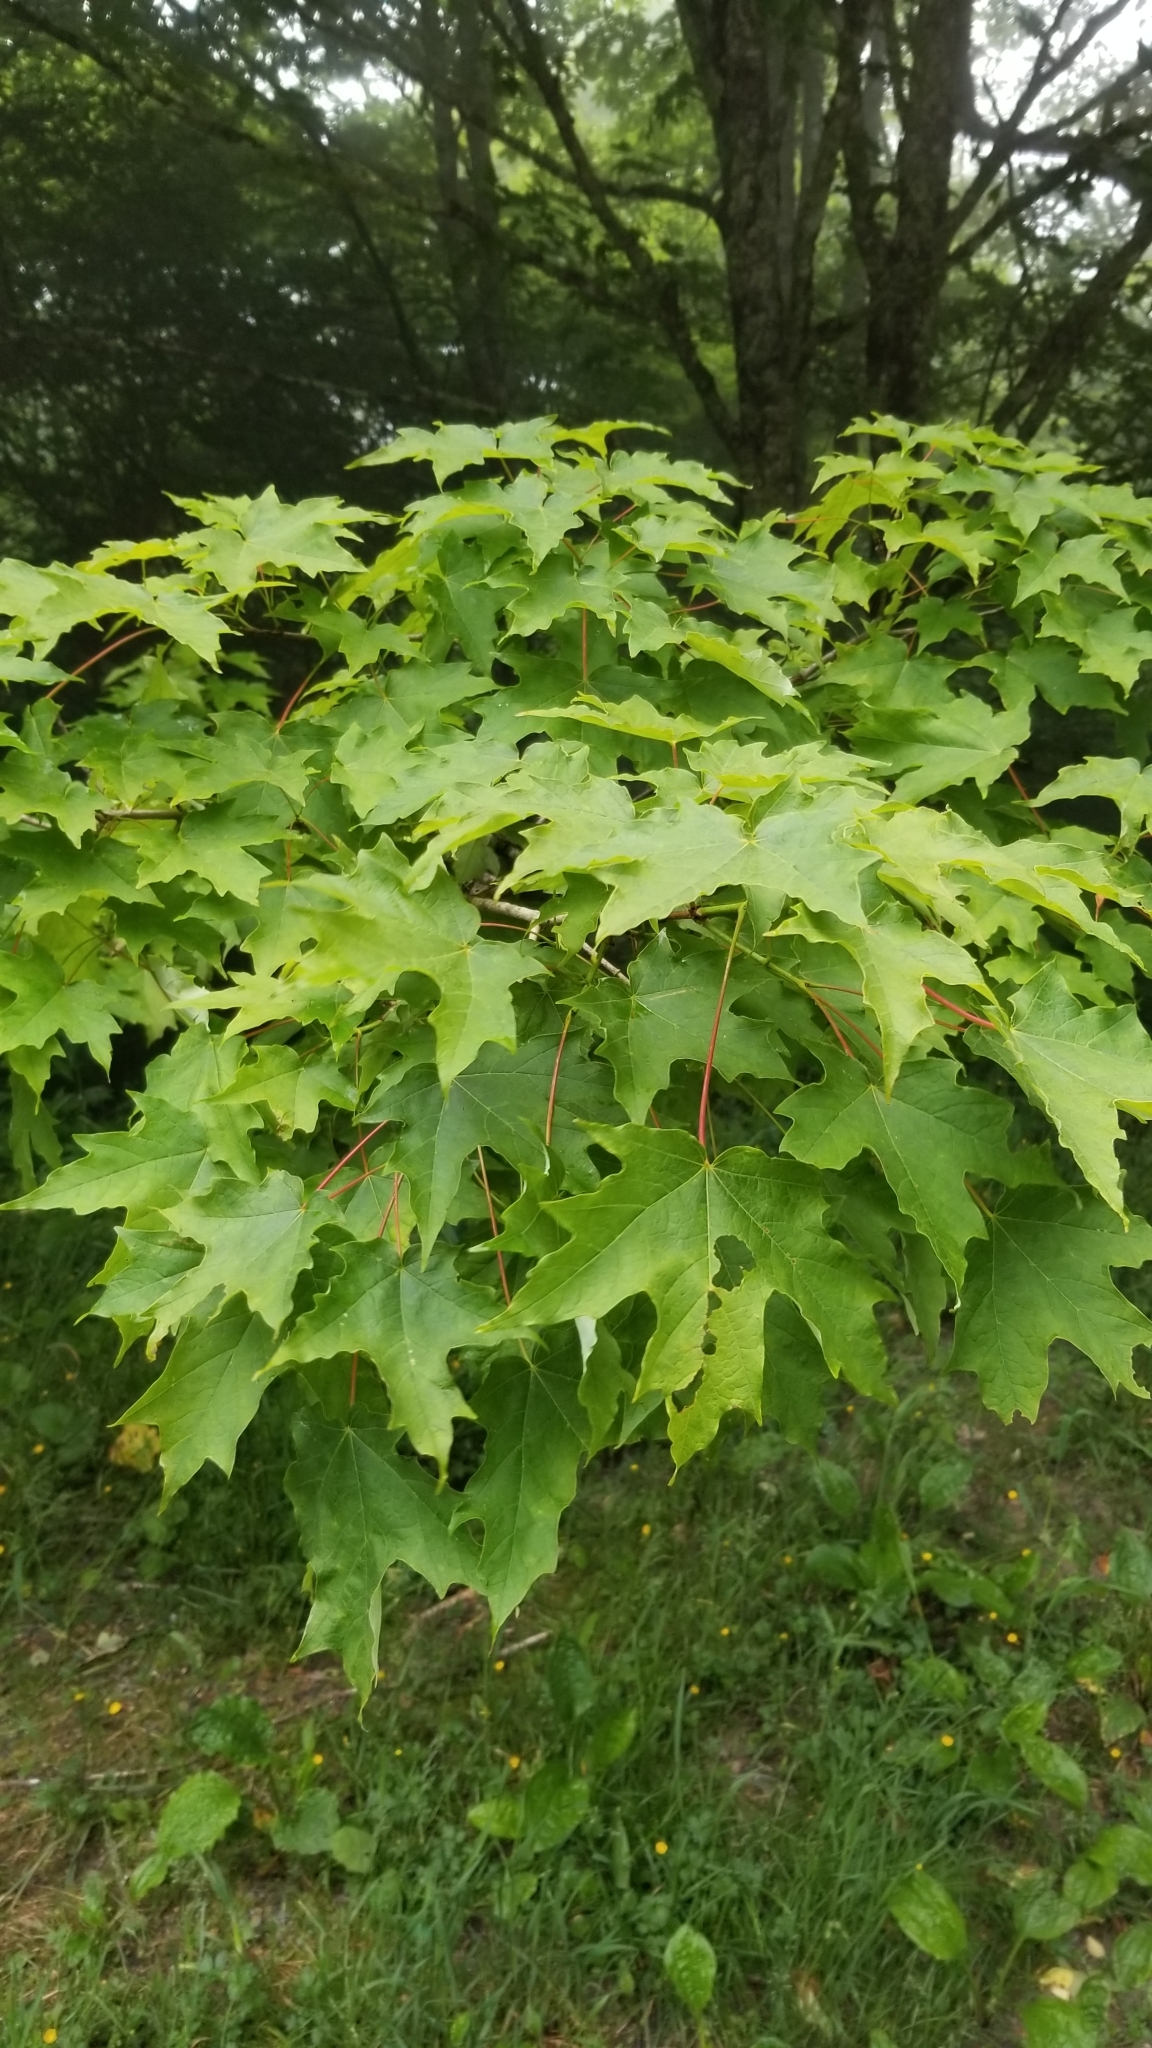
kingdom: Plantae
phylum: Tracheophyta
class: Magnoliopsida
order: Sapindales
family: Sapindaceae
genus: Acer
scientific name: Acer saccharum
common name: Sugar maple
